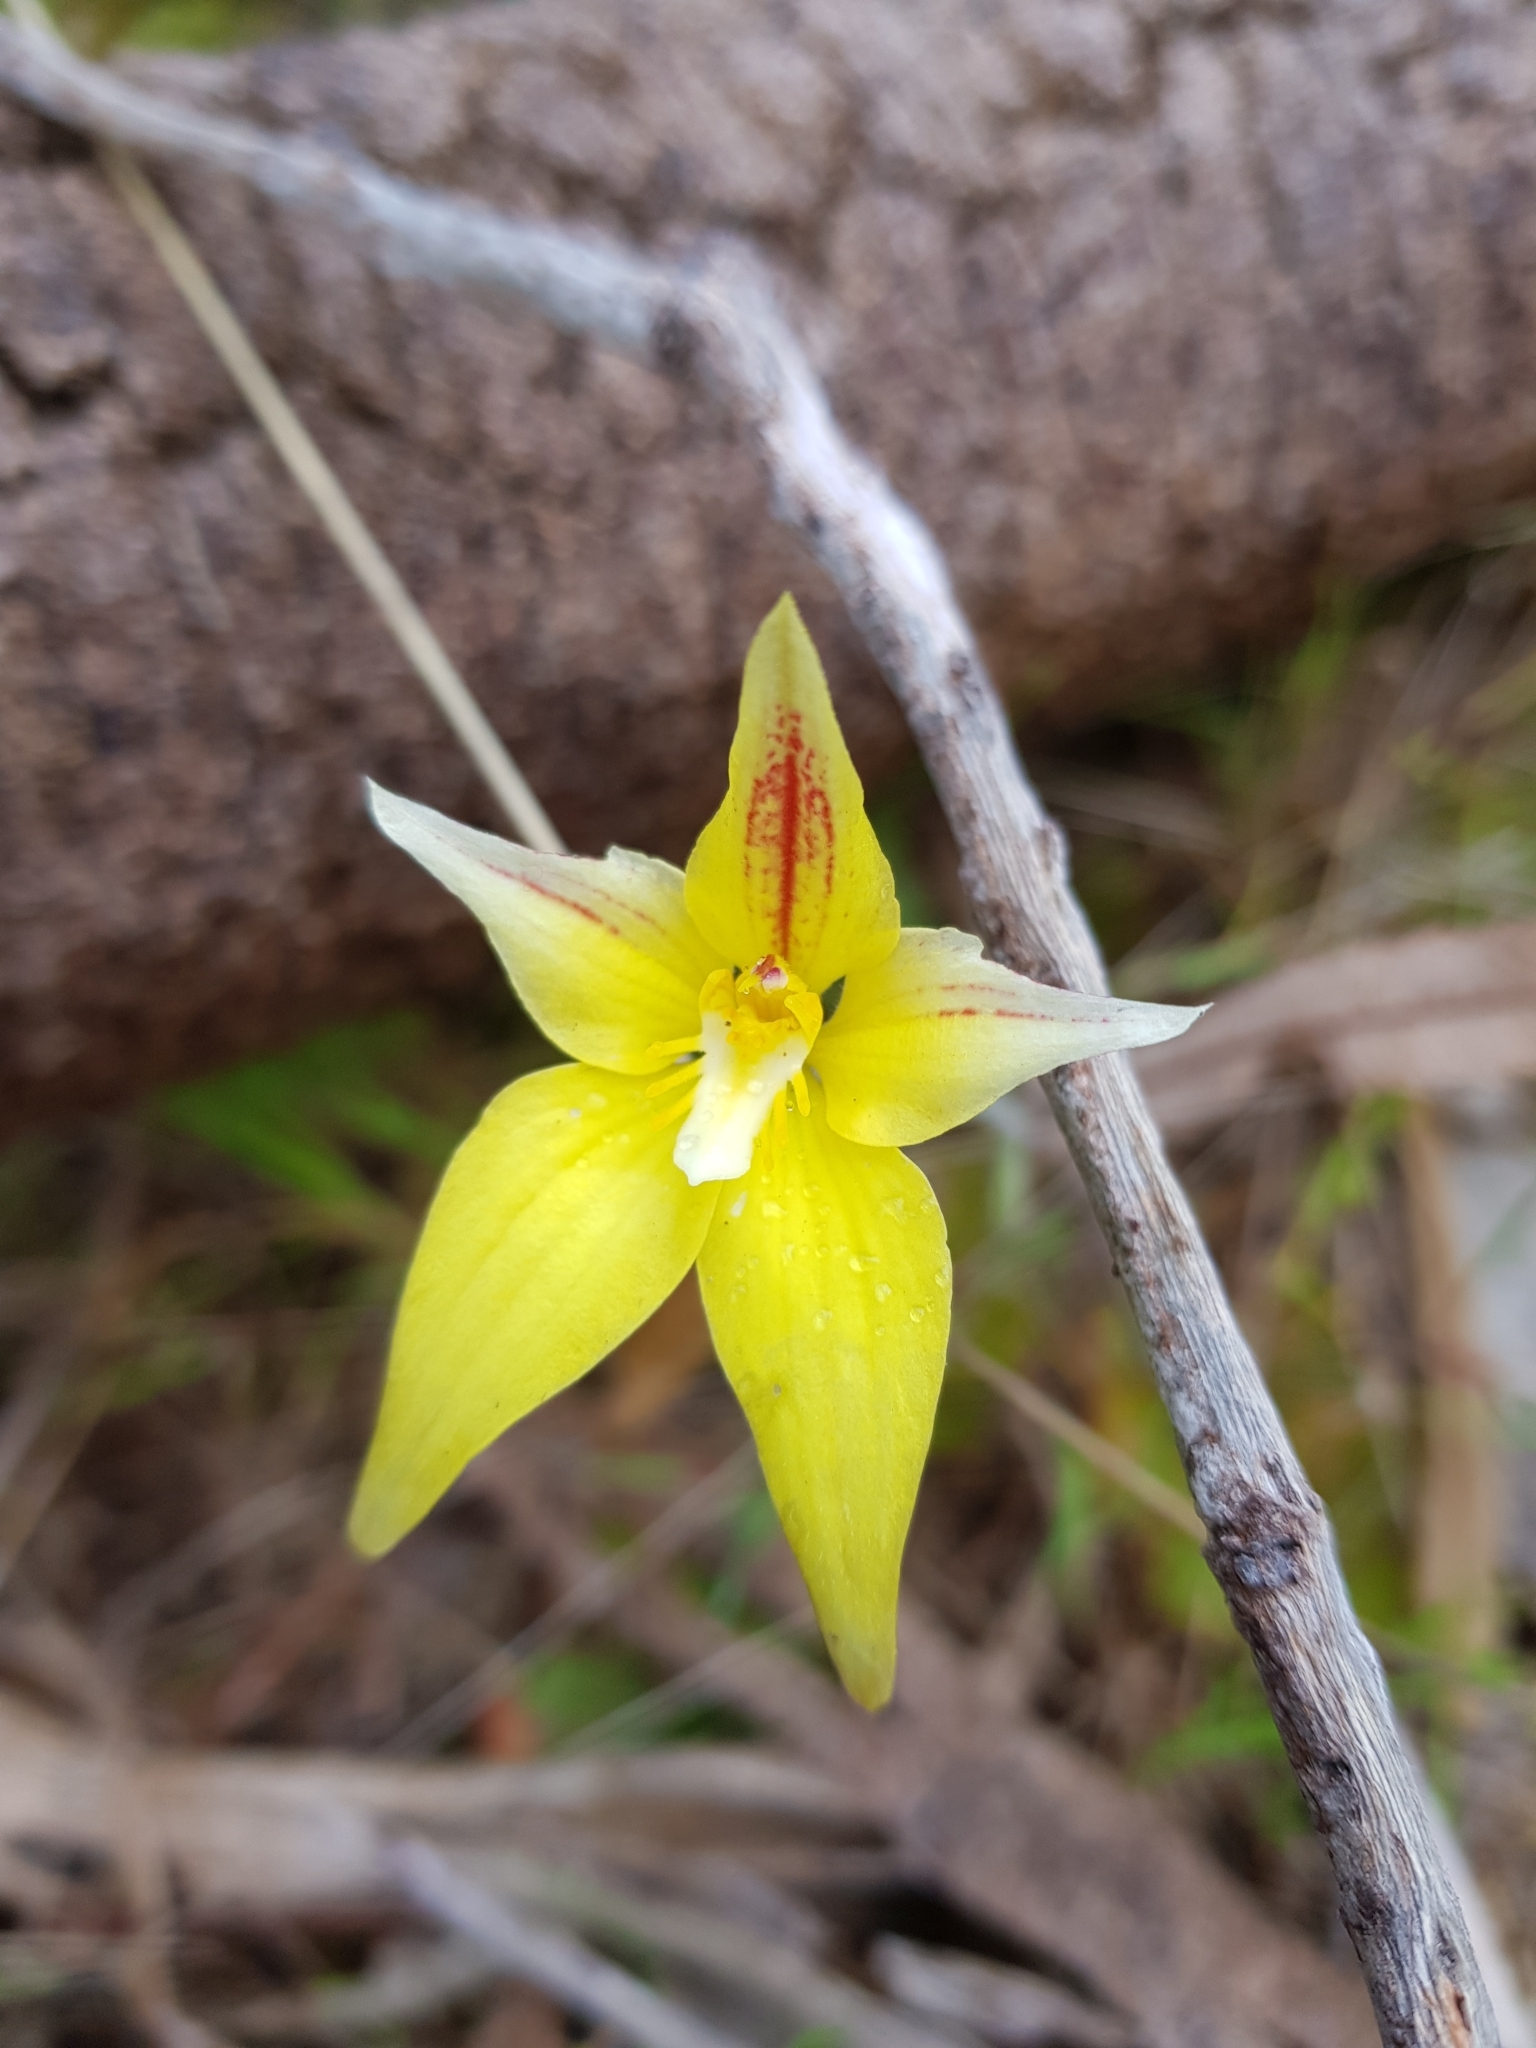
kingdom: Plantae
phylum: Tracheophyta
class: Liliopsida
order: Asparagales
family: Orchidaceae
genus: Caladenia
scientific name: Caladenia flava
